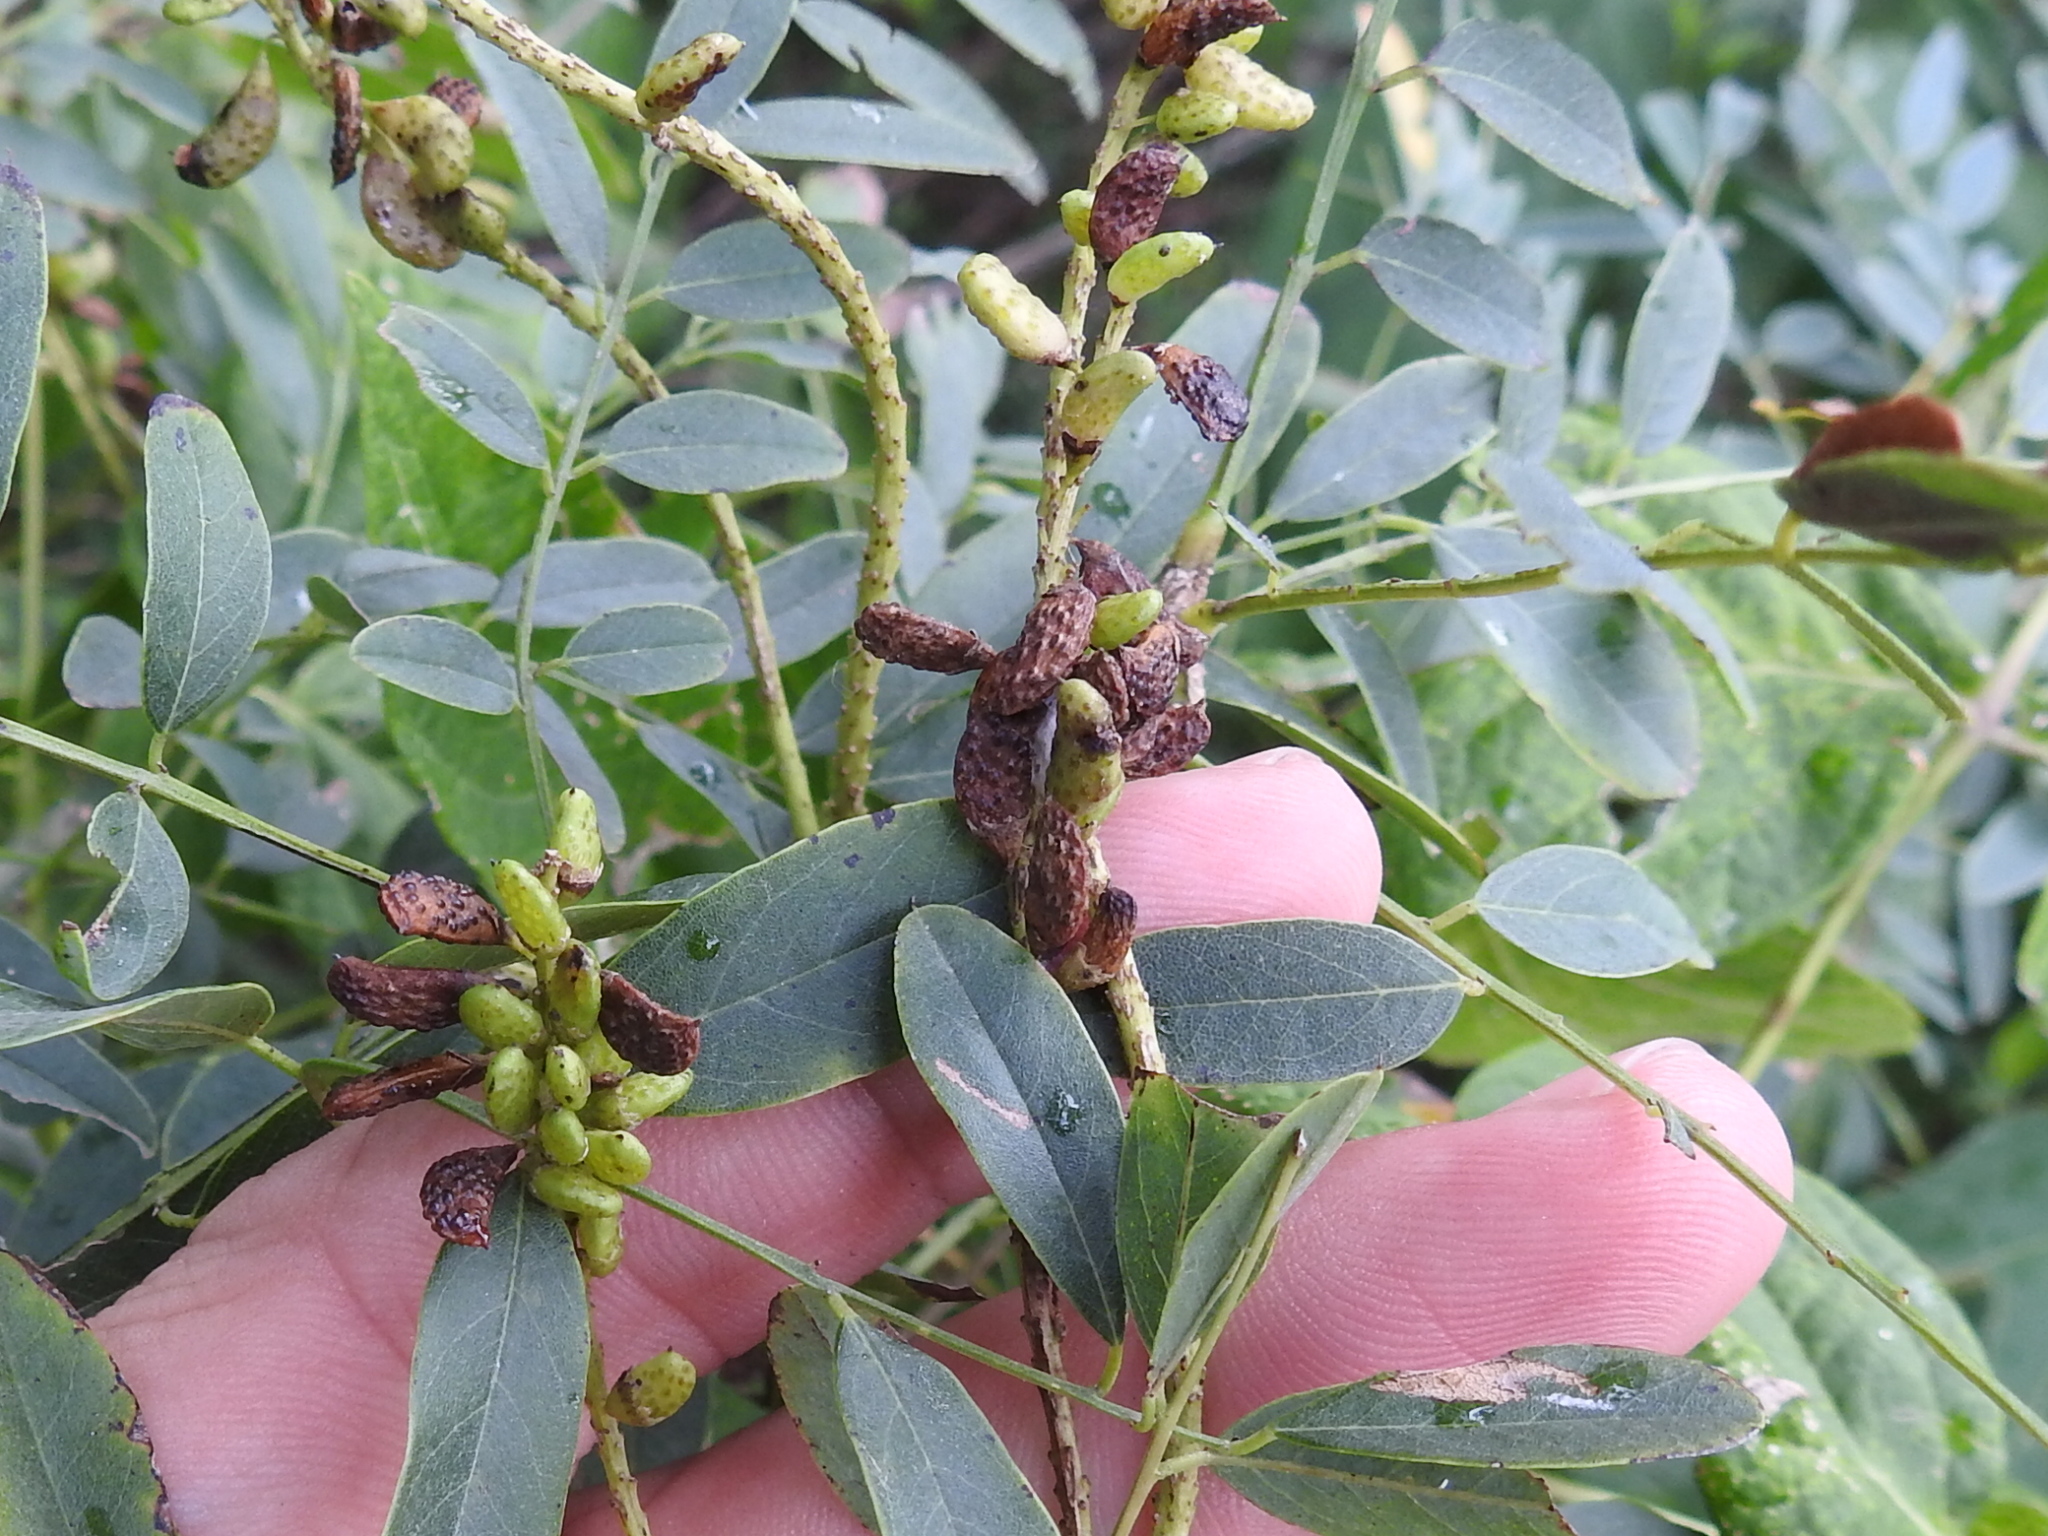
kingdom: Plantae
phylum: Tracheophyta
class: Magnoliopsida
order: Fabales
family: Fabaceae
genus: Amorpha
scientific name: Amorpha fruticosa
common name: False indigo
